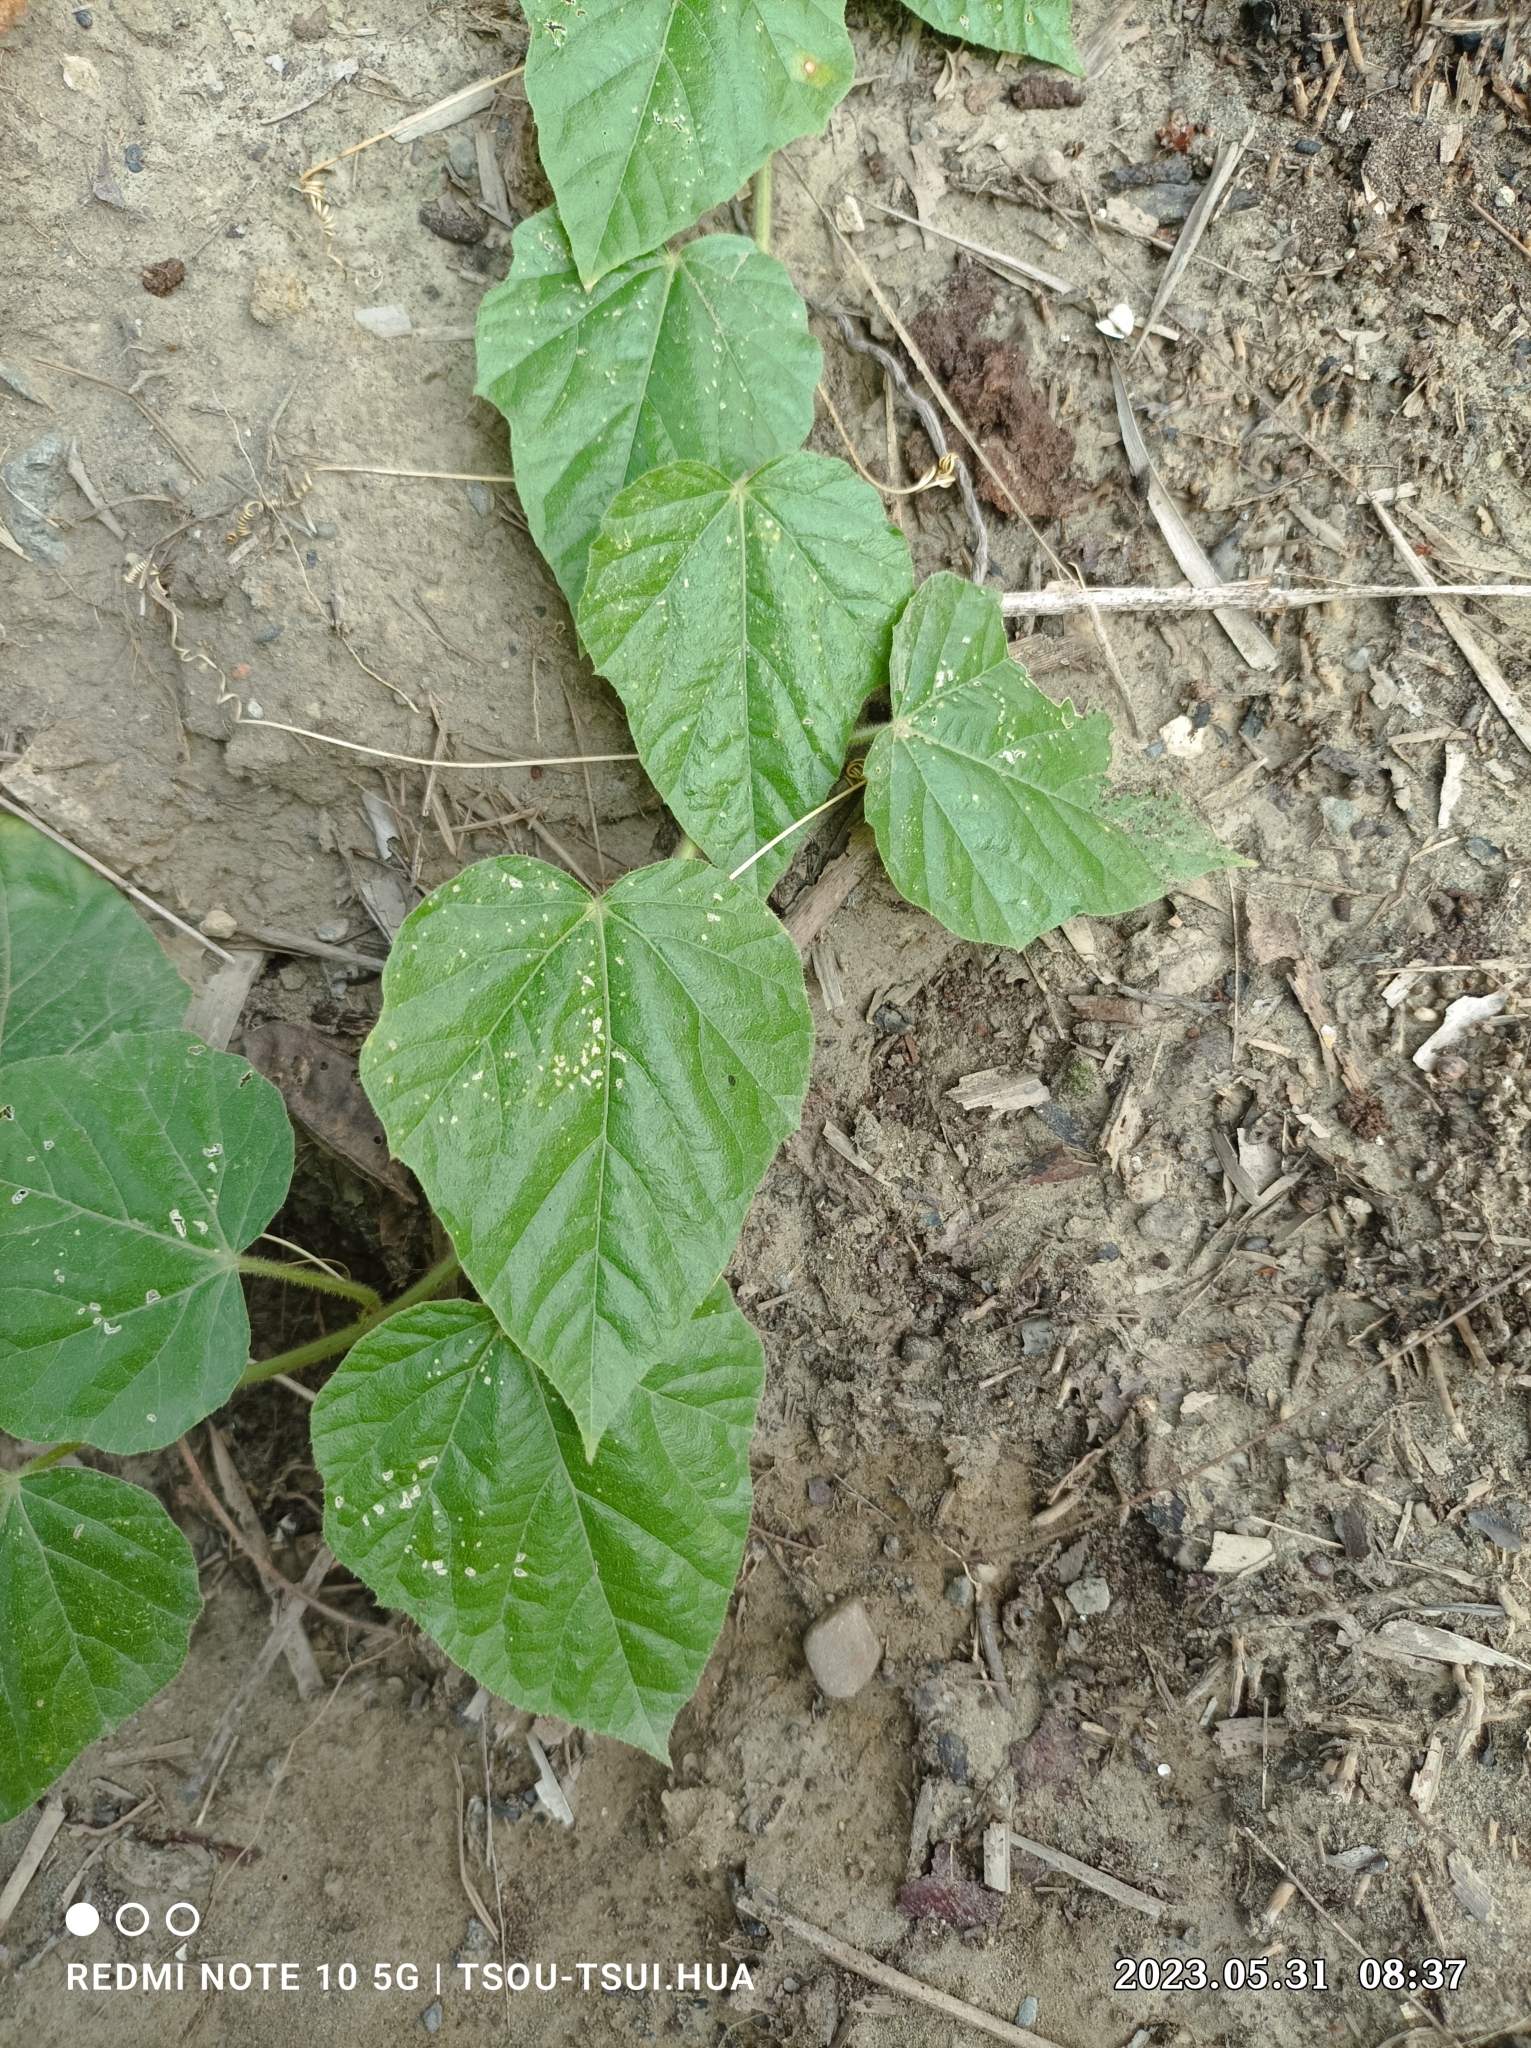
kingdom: Plantae
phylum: Tracheophyta
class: Magnoliopsida
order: Malpighiales
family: Passifloraceae
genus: Passiflora
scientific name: Passiflora vesicaria
